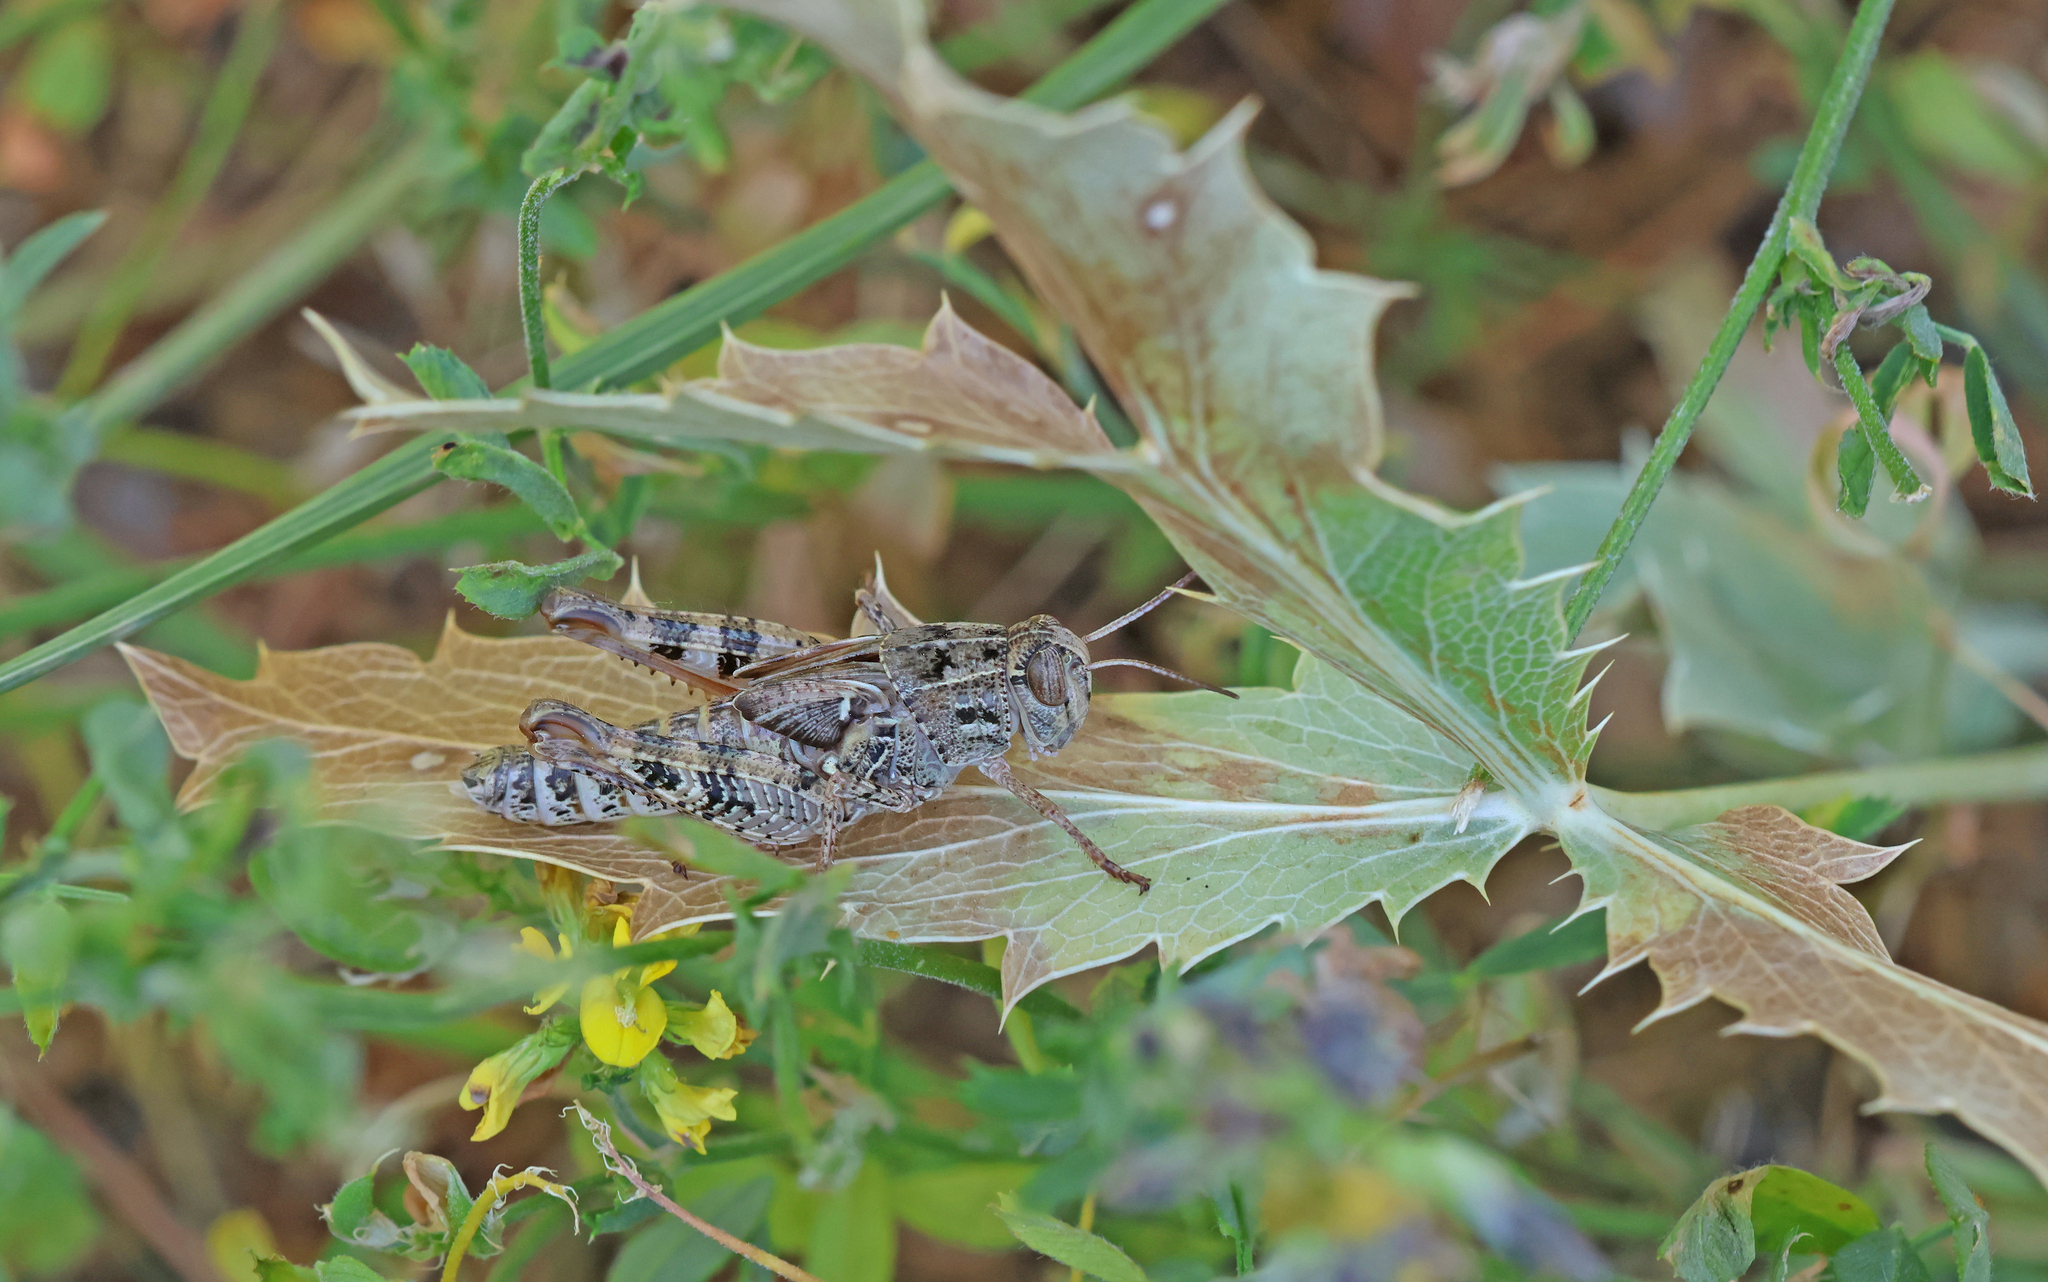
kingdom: Animalia
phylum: Arthropoda
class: Insecta
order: Orthoptera
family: Acrididae
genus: Calliptamus
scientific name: Calliptamus italicus
